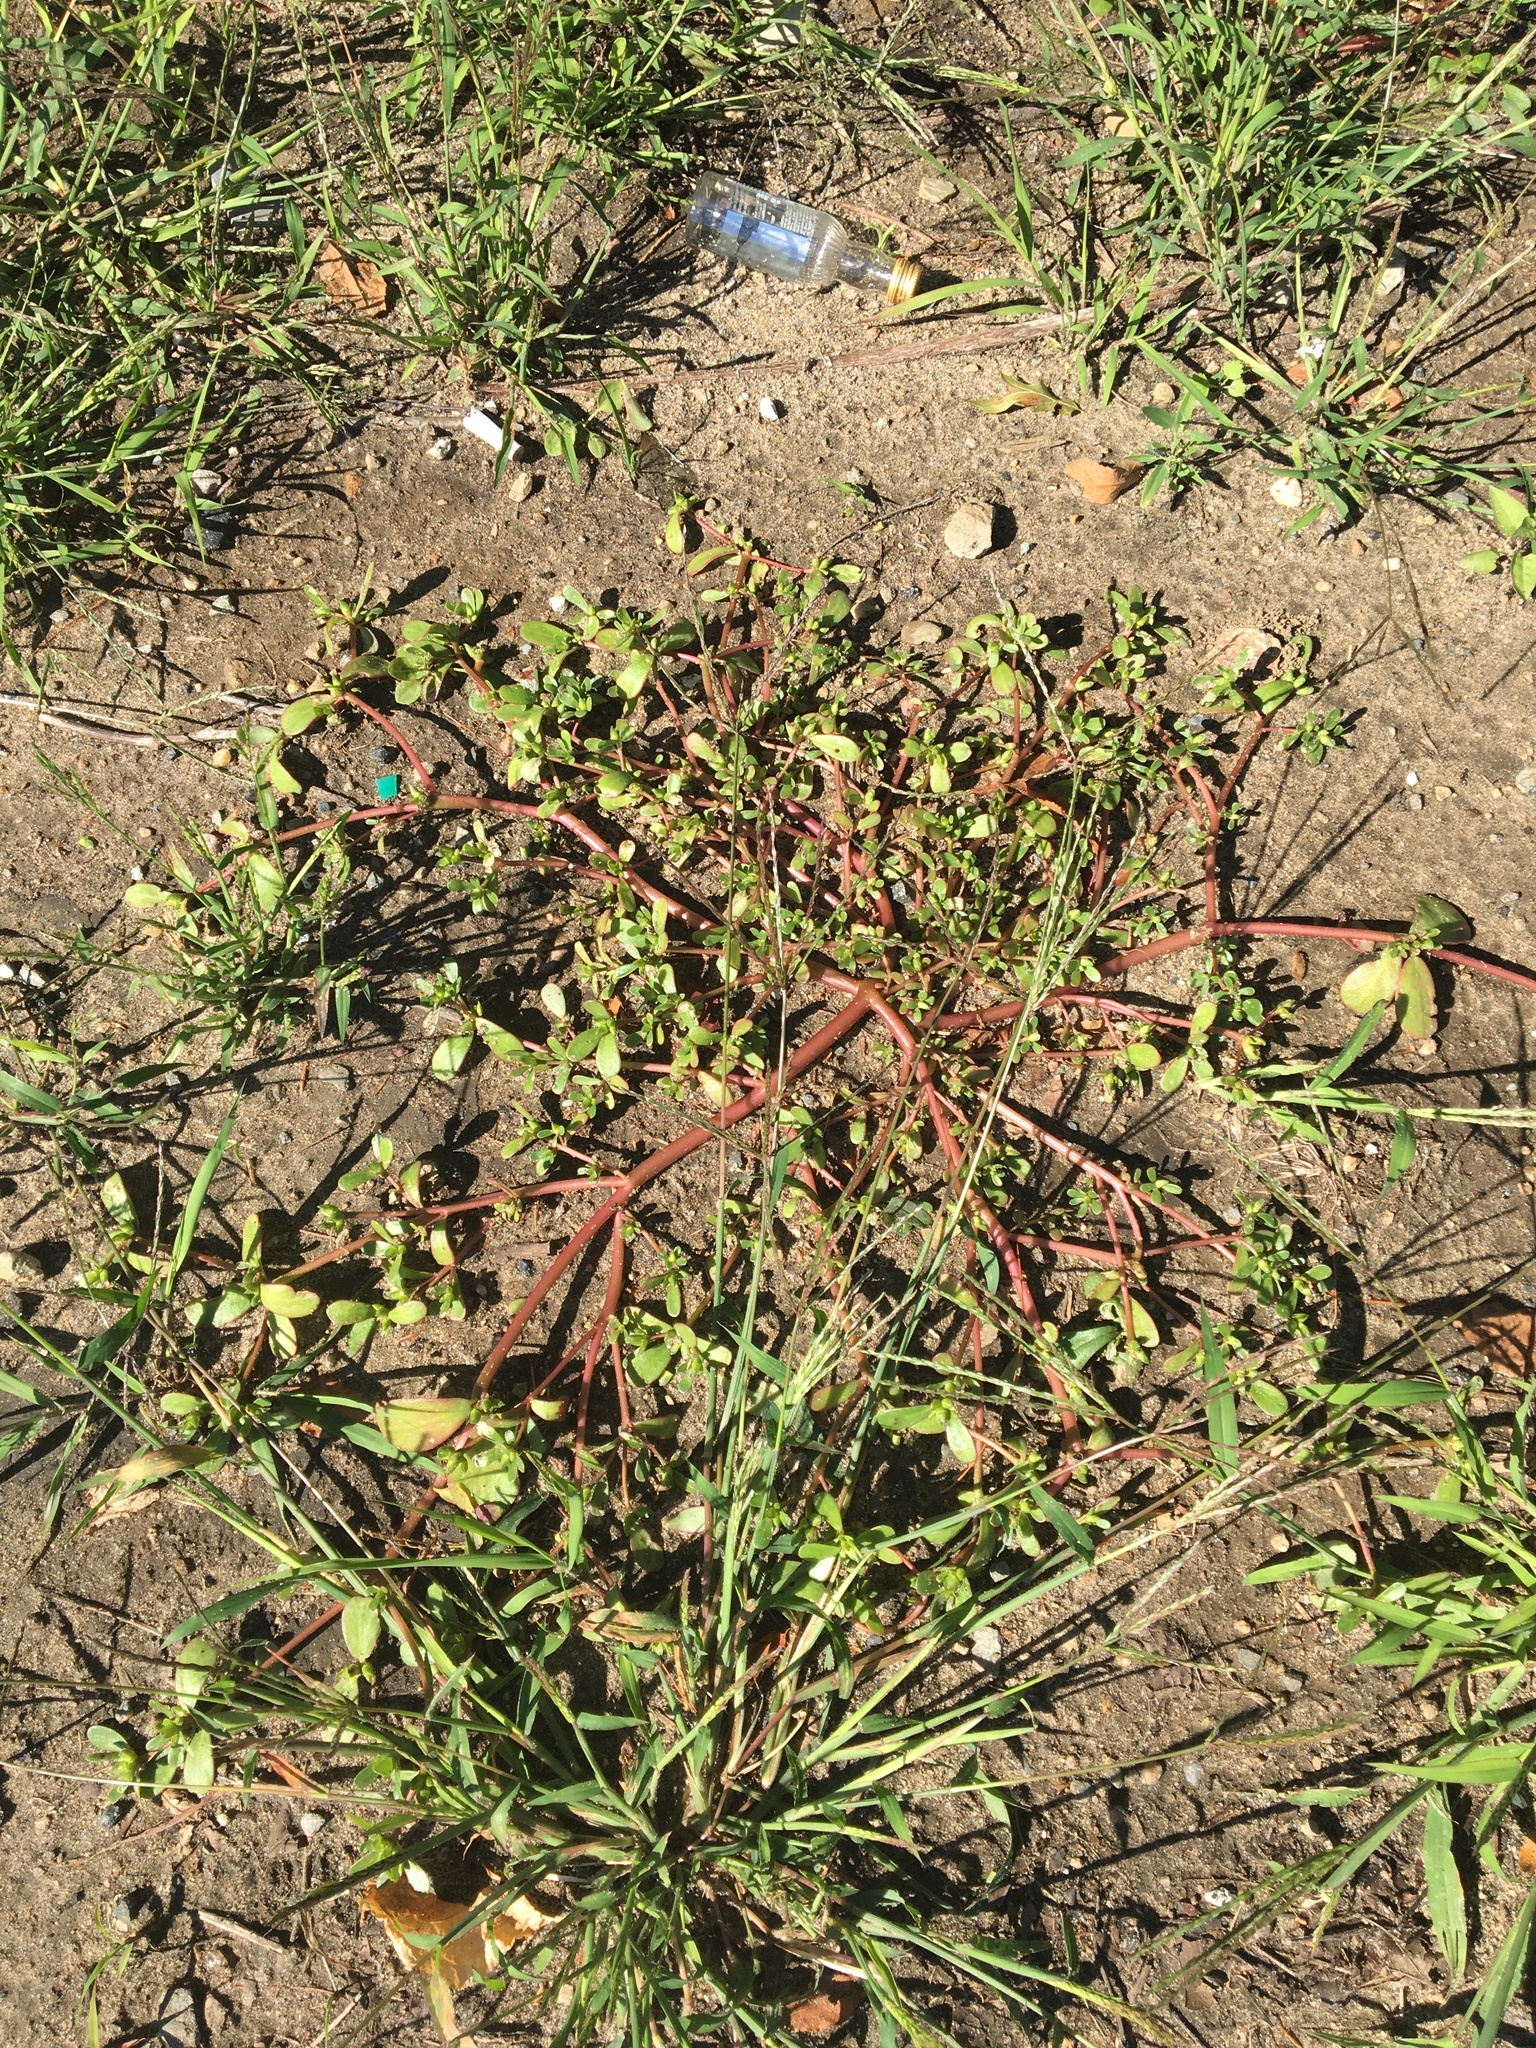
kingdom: Plantae
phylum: Tracheophyta
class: Magnoliopsida
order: Caryophyllales
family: Portulacaceae
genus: Portulaca
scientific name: Portulaca oleracea
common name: Common purslane
